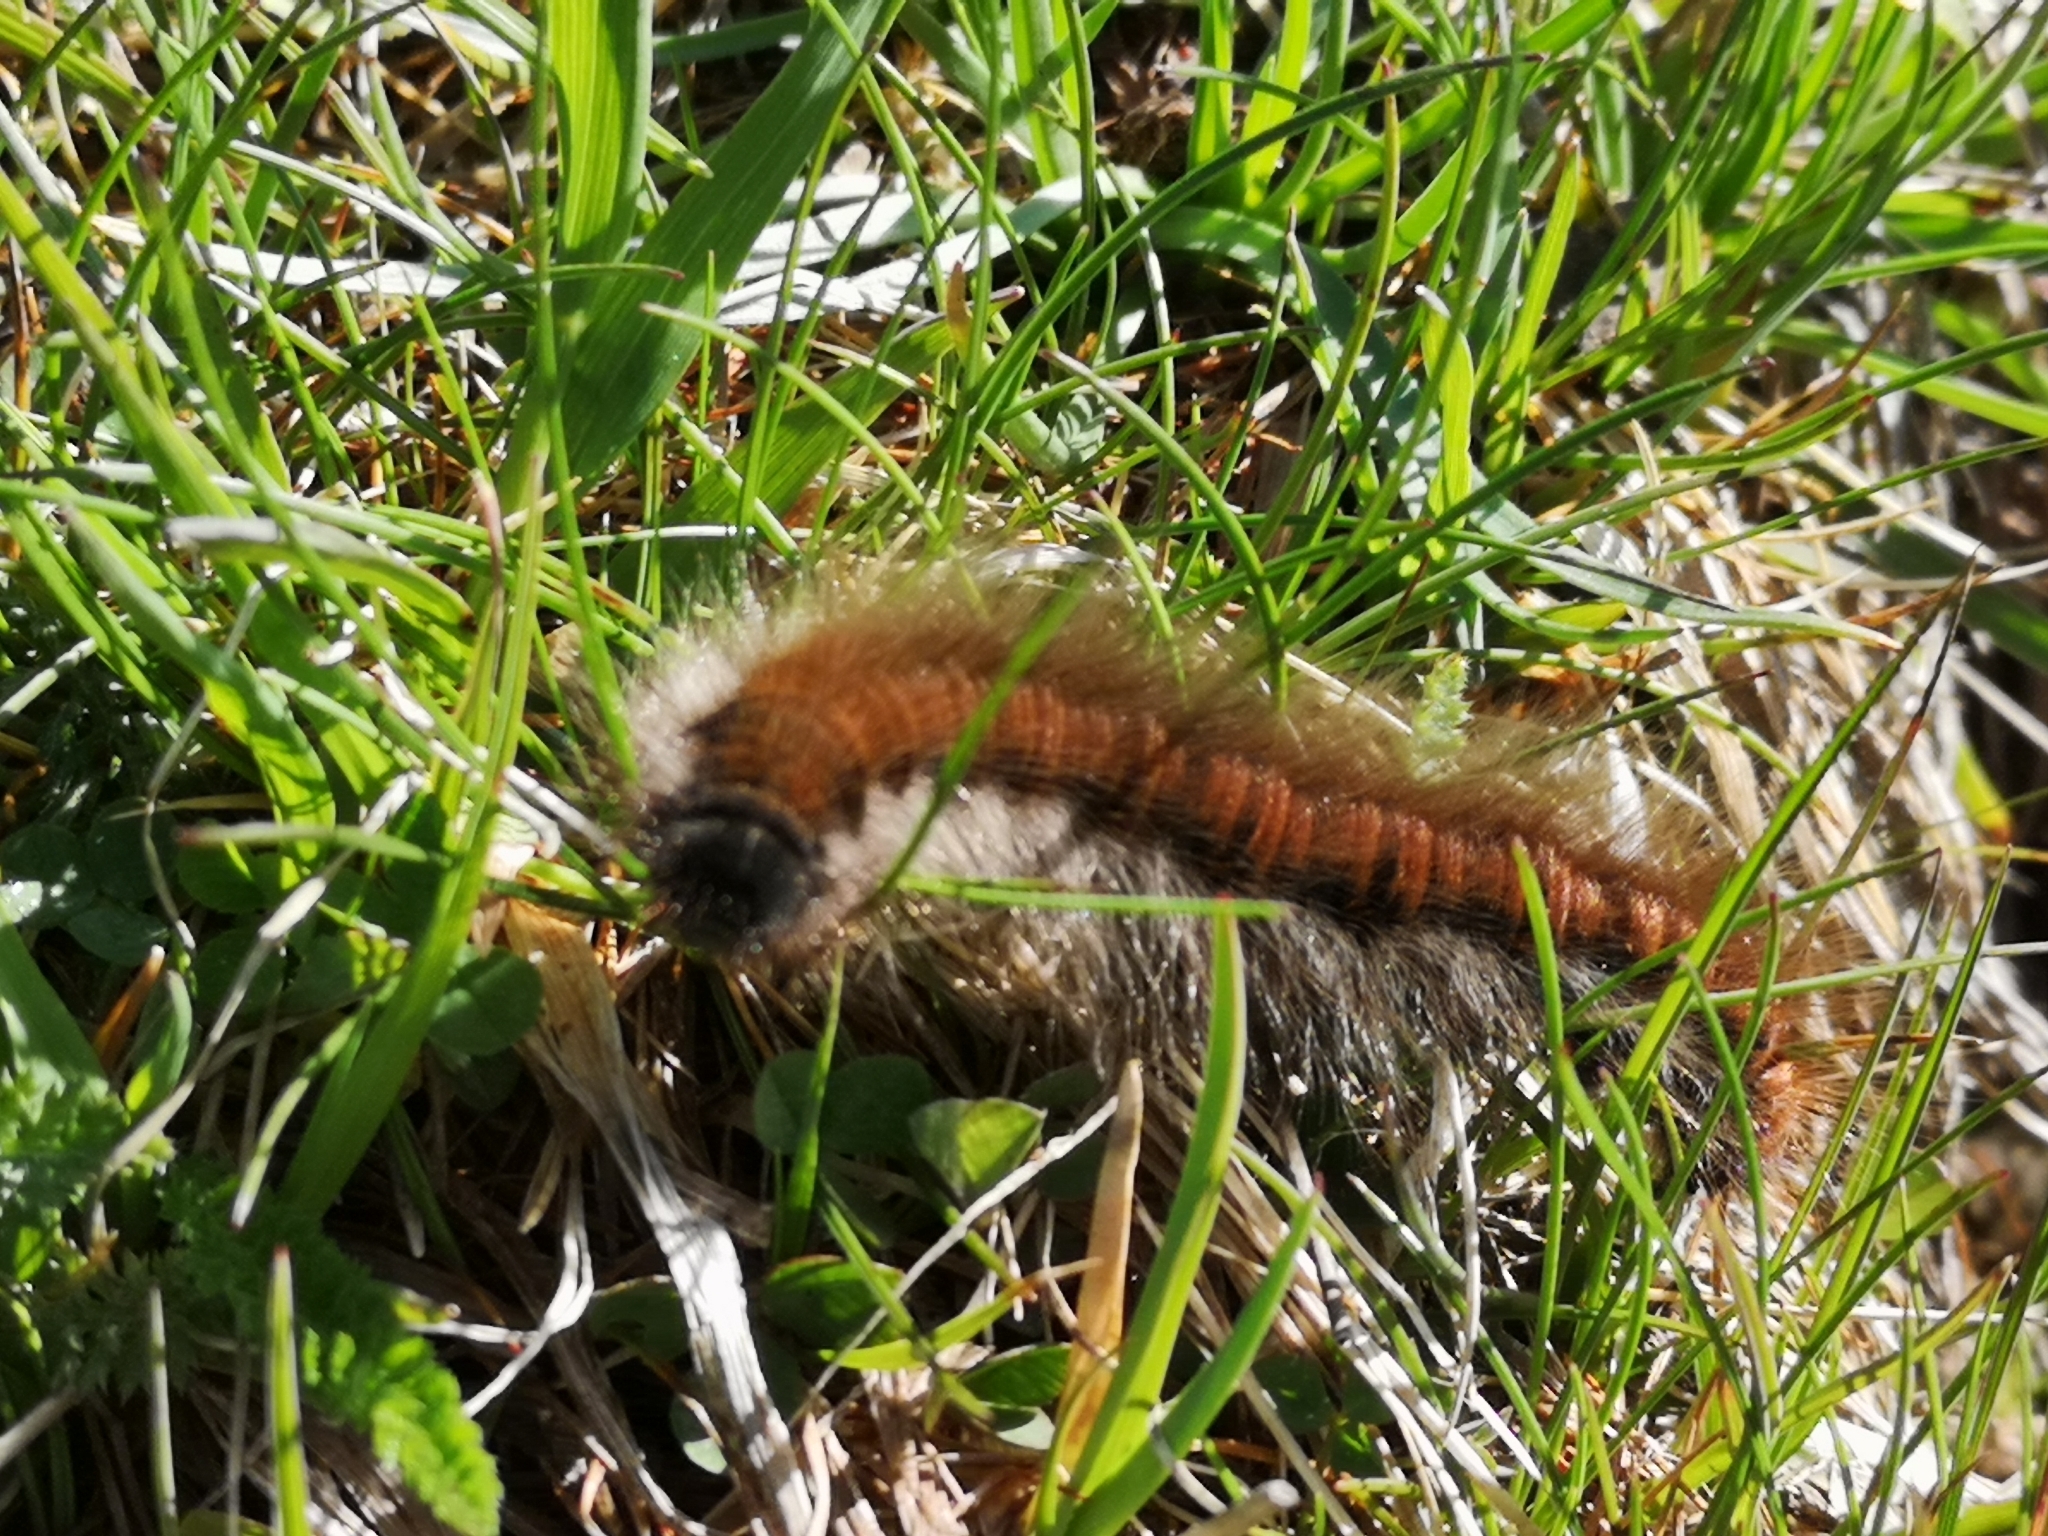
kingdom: Animalia
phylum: Arthropoda
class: Insecta
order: Lepidoptera
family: Lasiocampidae
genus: Macrothylacia
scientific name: Macrothylacia rubi
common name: Fox moth
